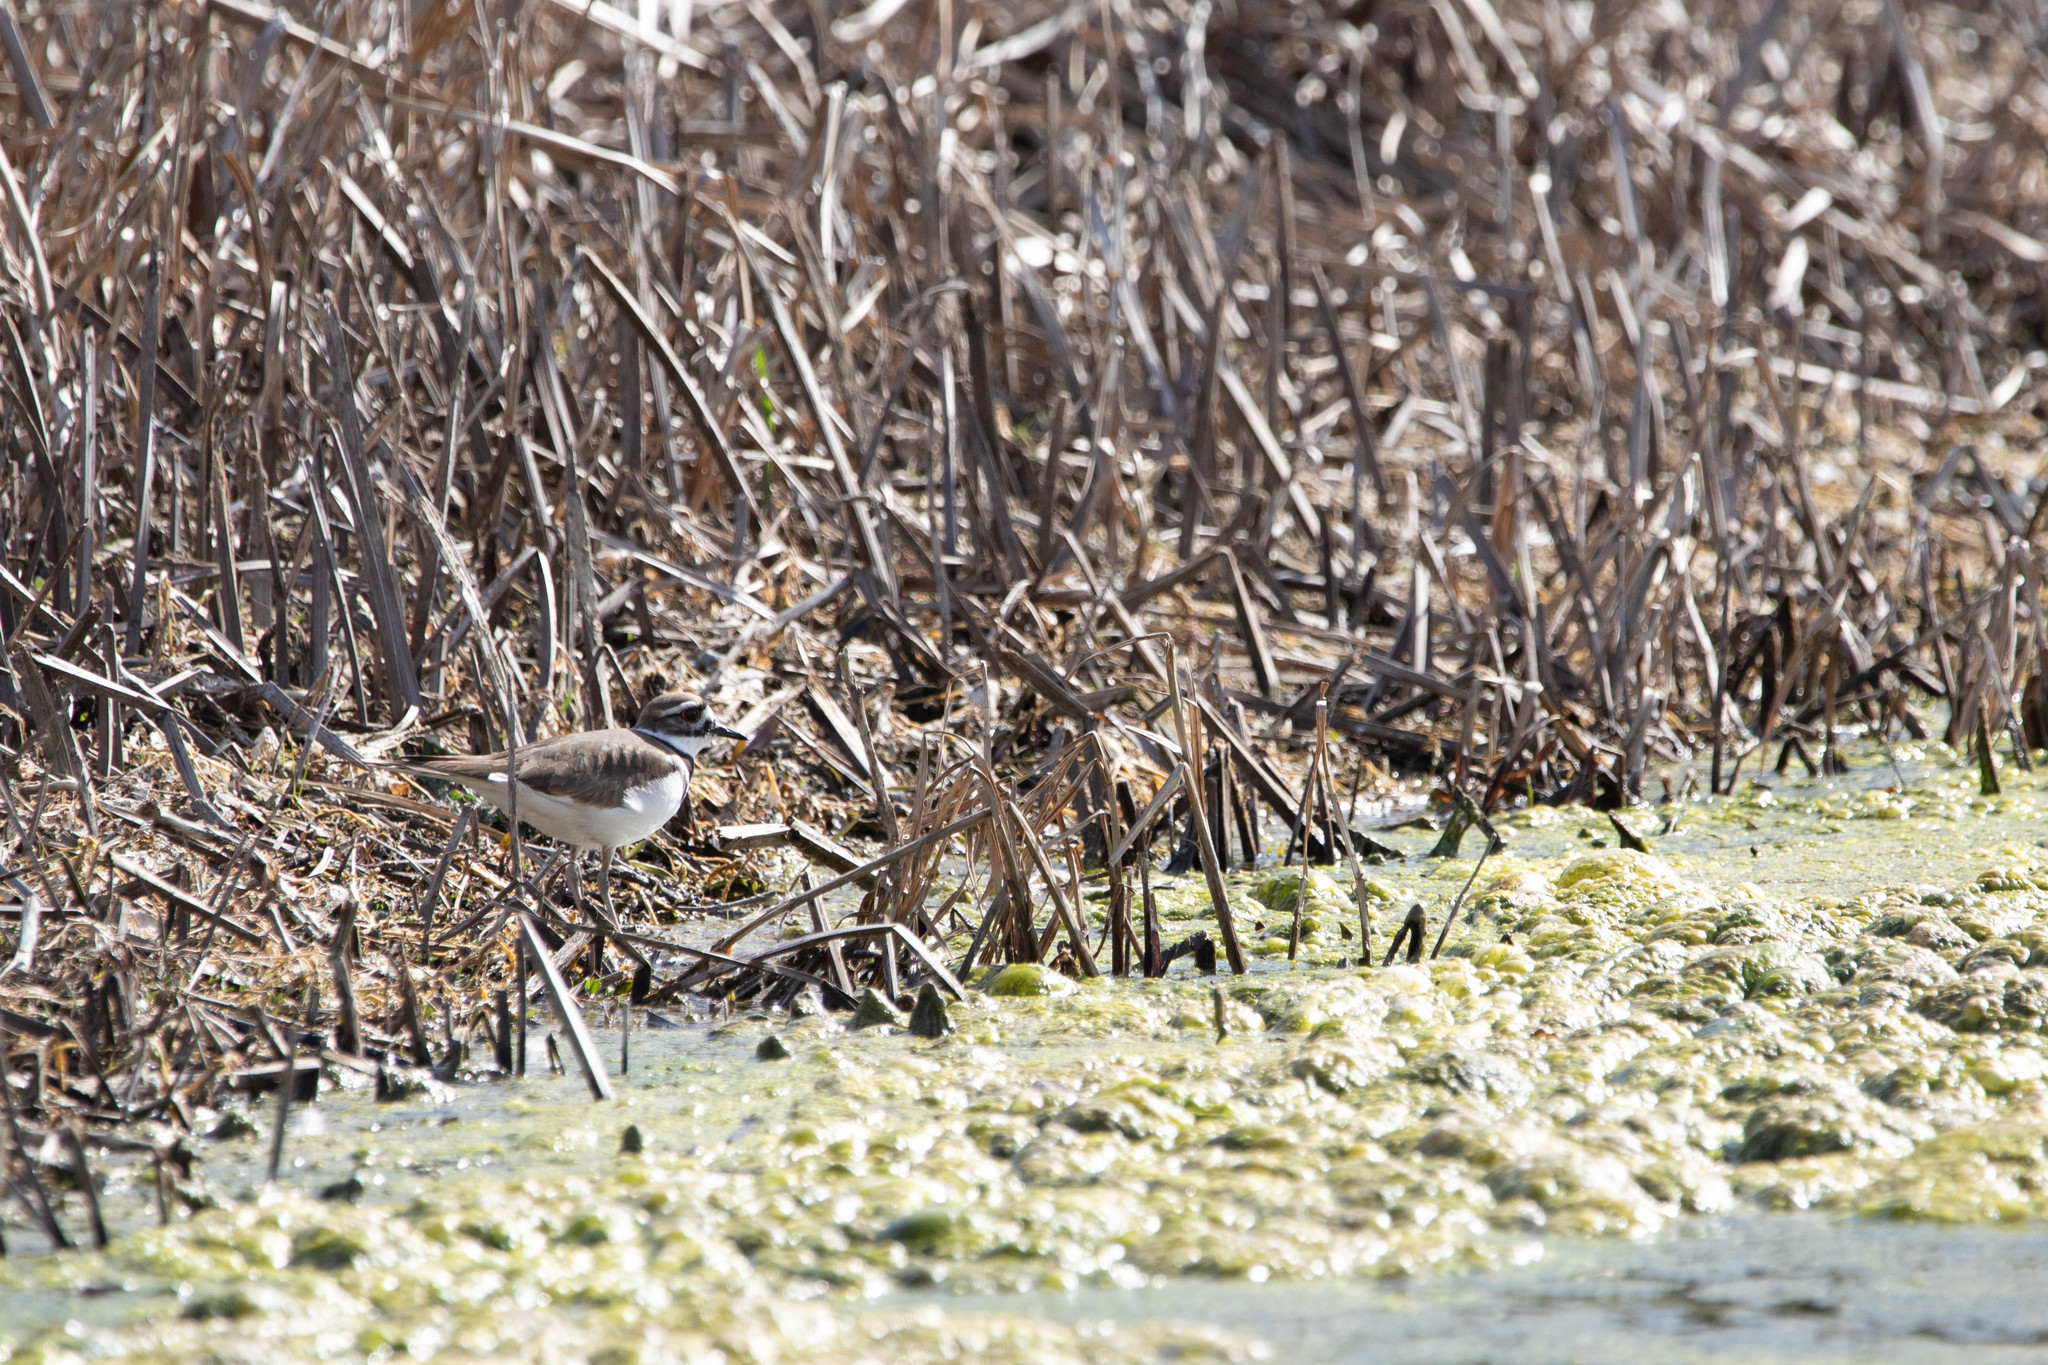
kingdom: Animalia
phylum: Chordata
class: Aves
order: Charadriiformes
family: Charadriidae
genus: Charadrius
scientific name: Charadrius vociferus
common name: Killdeer
